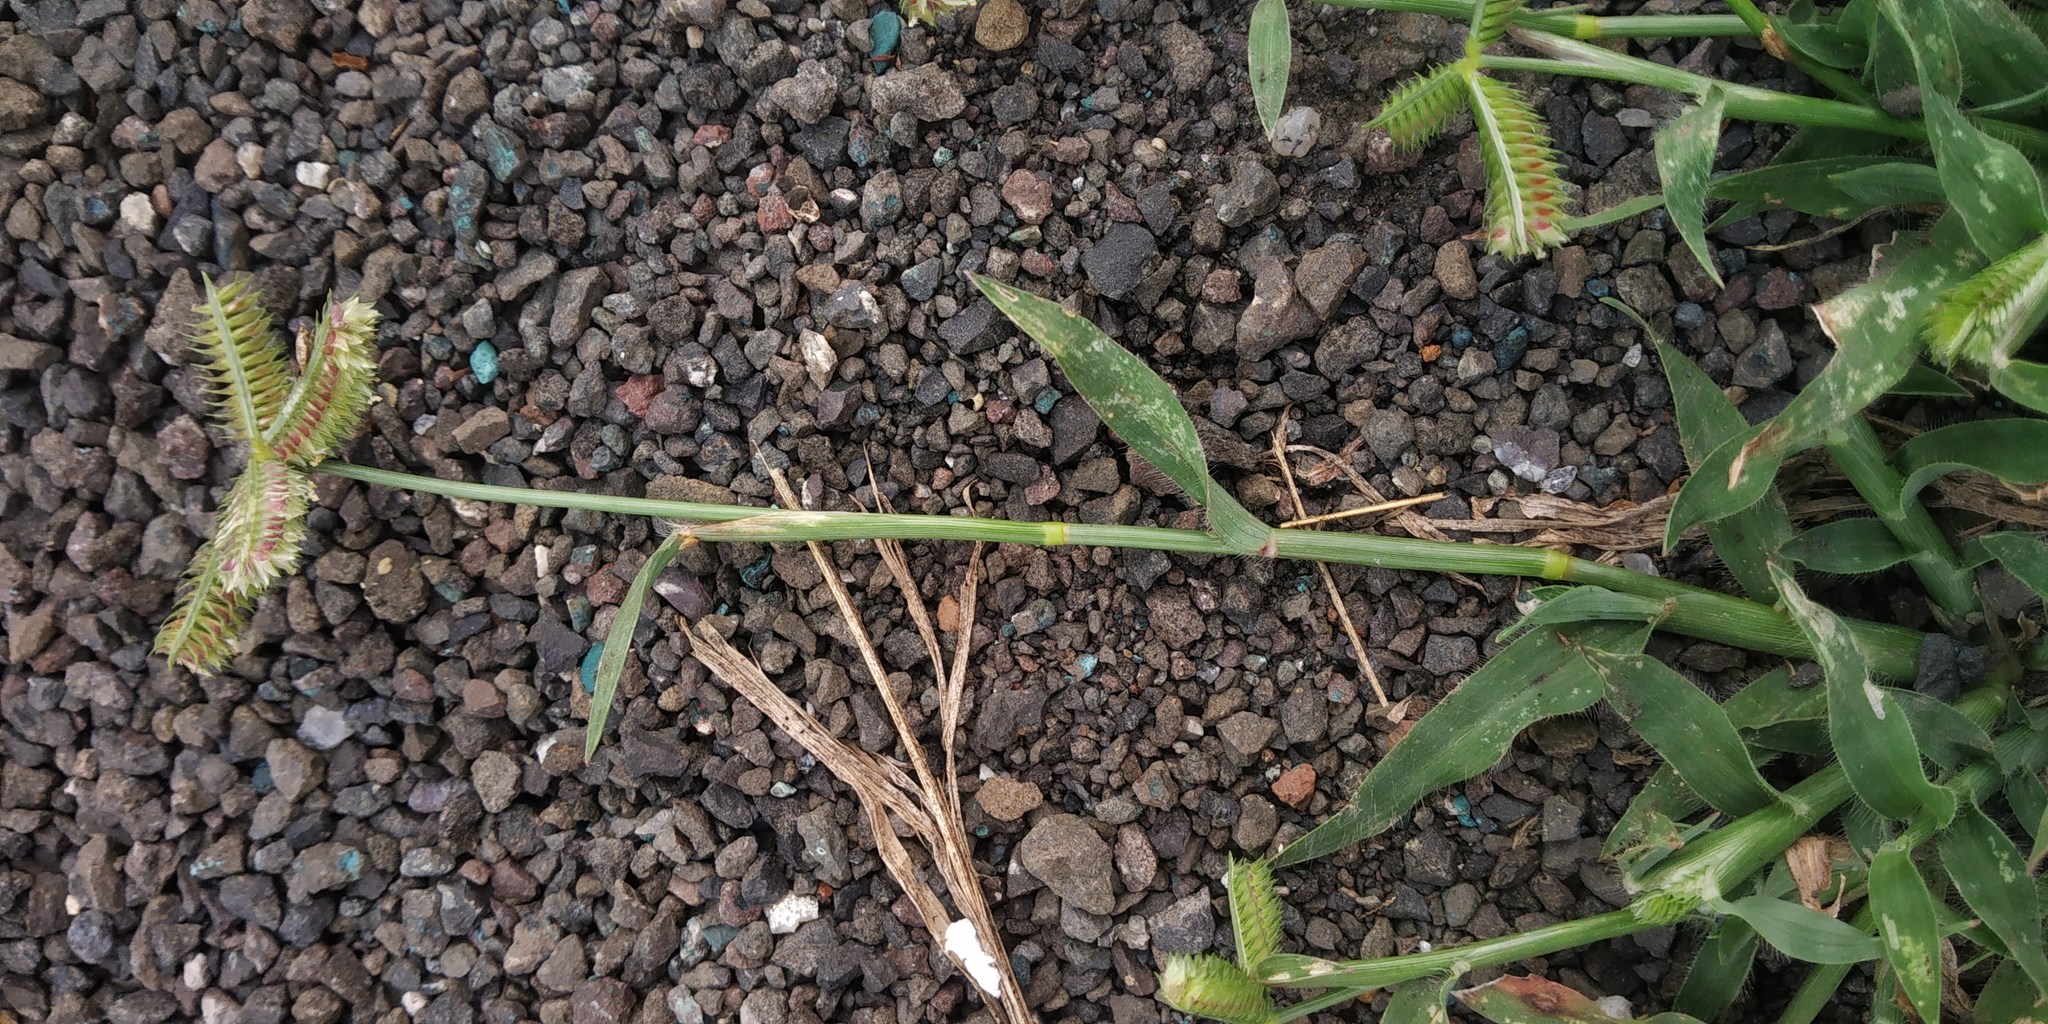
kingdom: Plantae
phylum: Tracheophyta
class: Liliopsida
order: Poales
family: Poaceae
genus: Dactyloctenium
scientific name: Dactyloctenium aegyptium
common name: Egyptian grass
